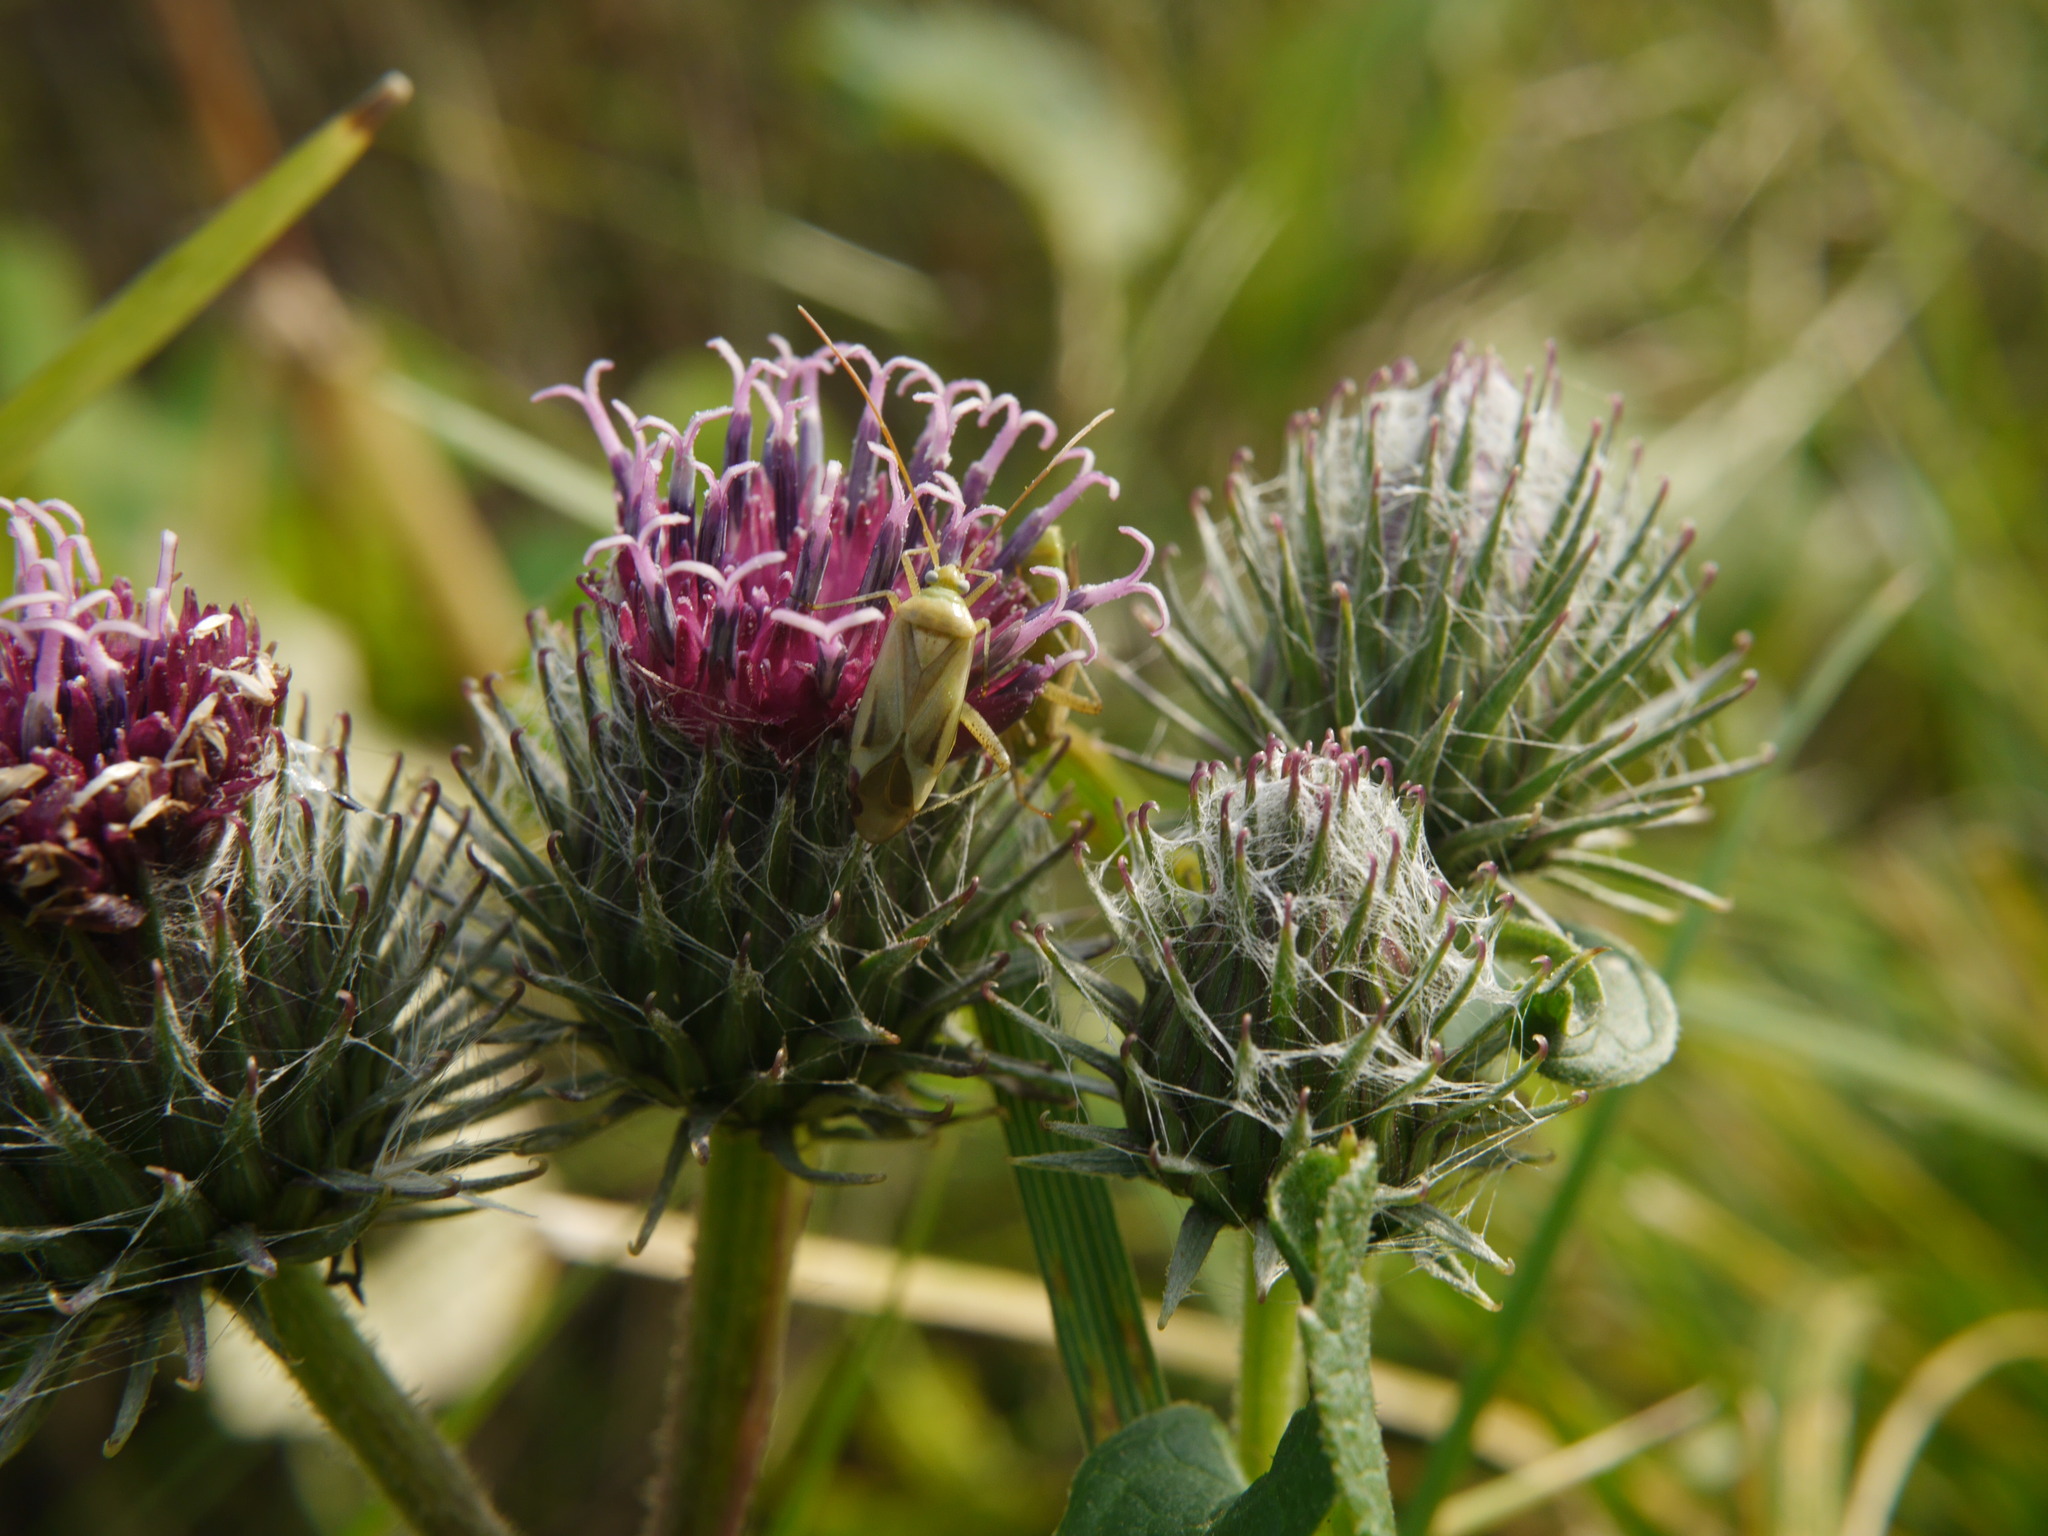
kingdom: Animalia
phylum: Arthropoda
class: Insecta
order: Hemiptera
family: Miridae
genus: Adelphocoris
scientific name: Adelphocoris lineolatus
